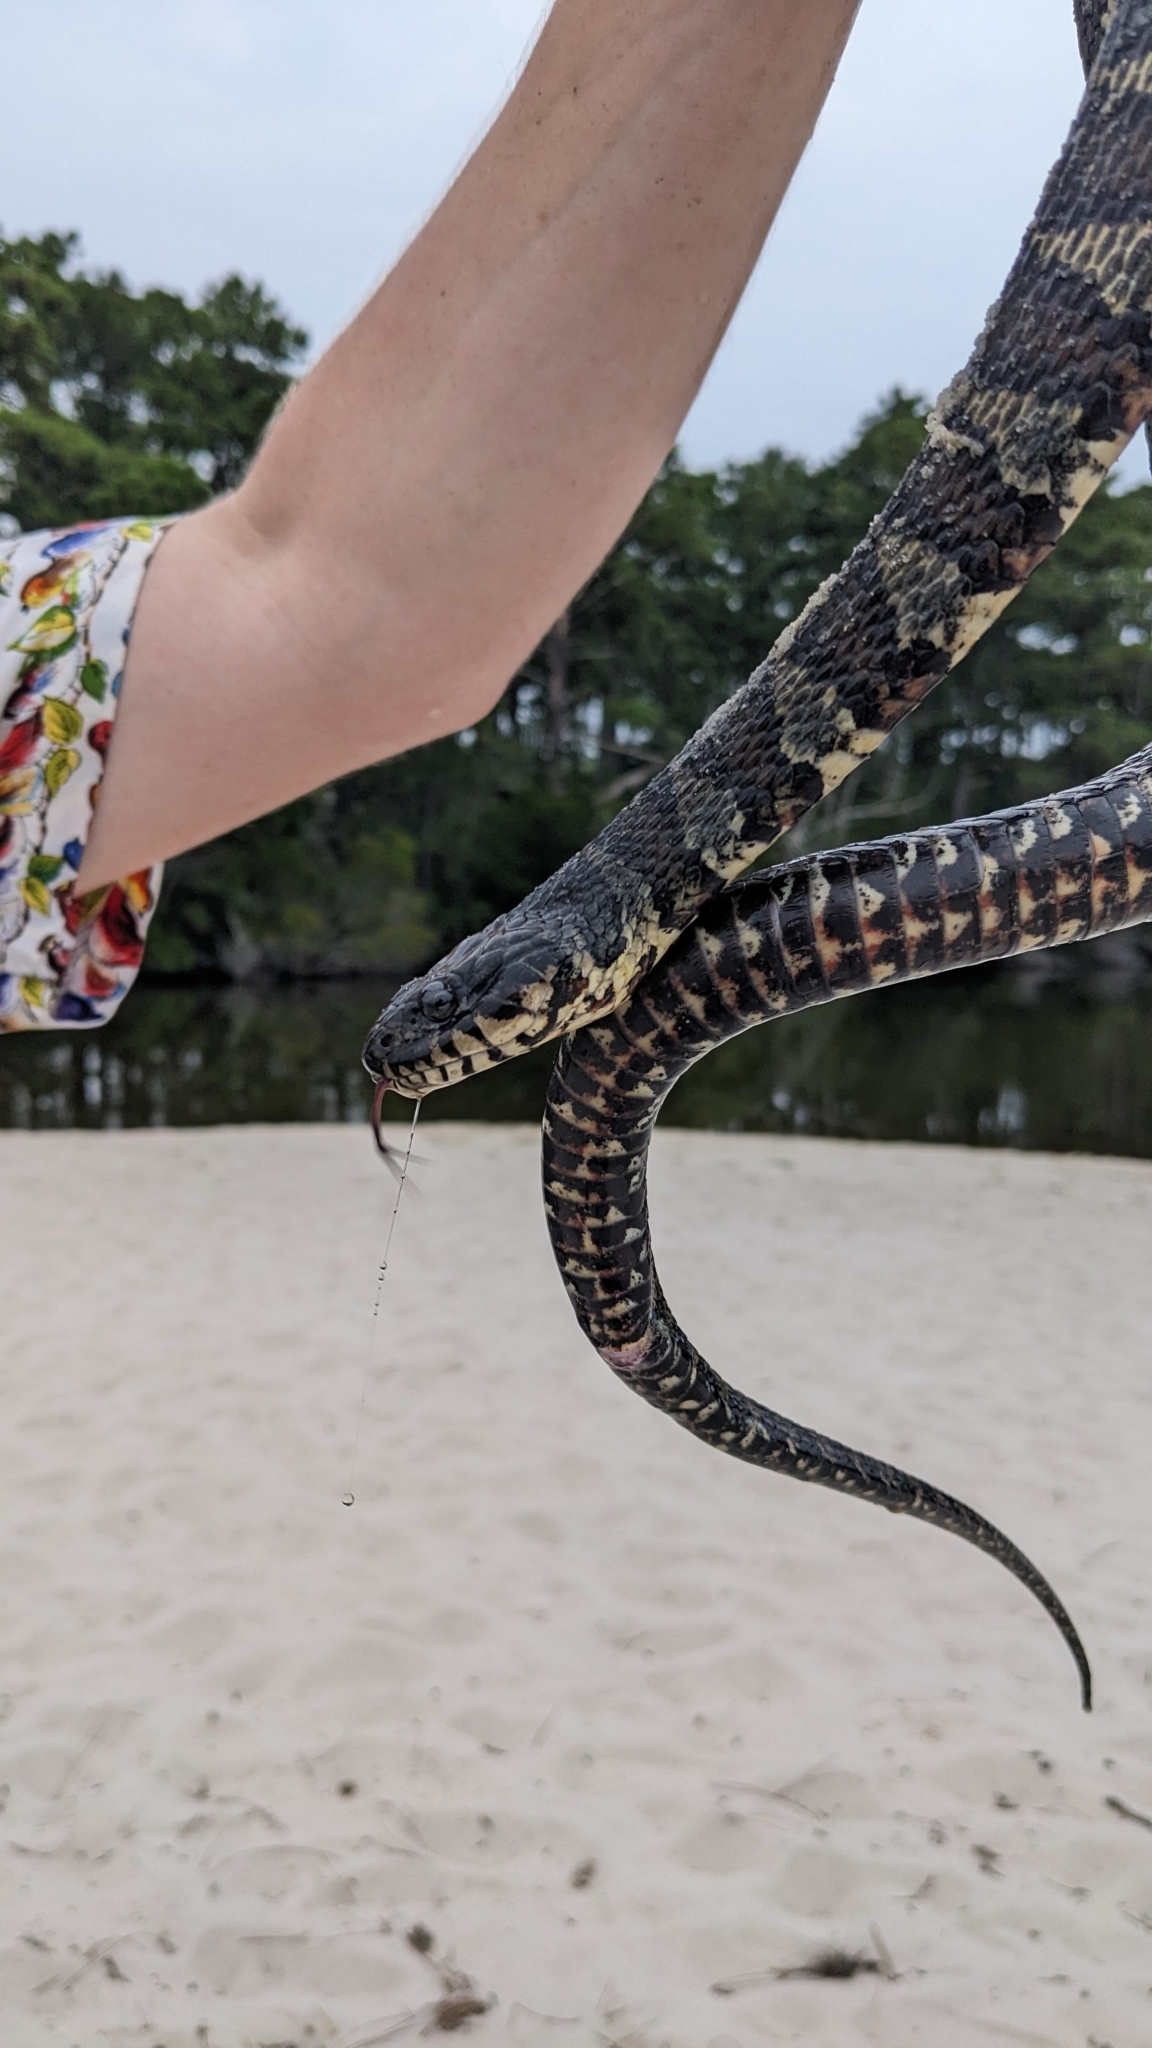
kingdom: Animalia
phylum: Chordata
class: Squamata
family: Colubridae
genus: Nerodia
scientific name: Nerodia sipedon
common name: Northern water snake
